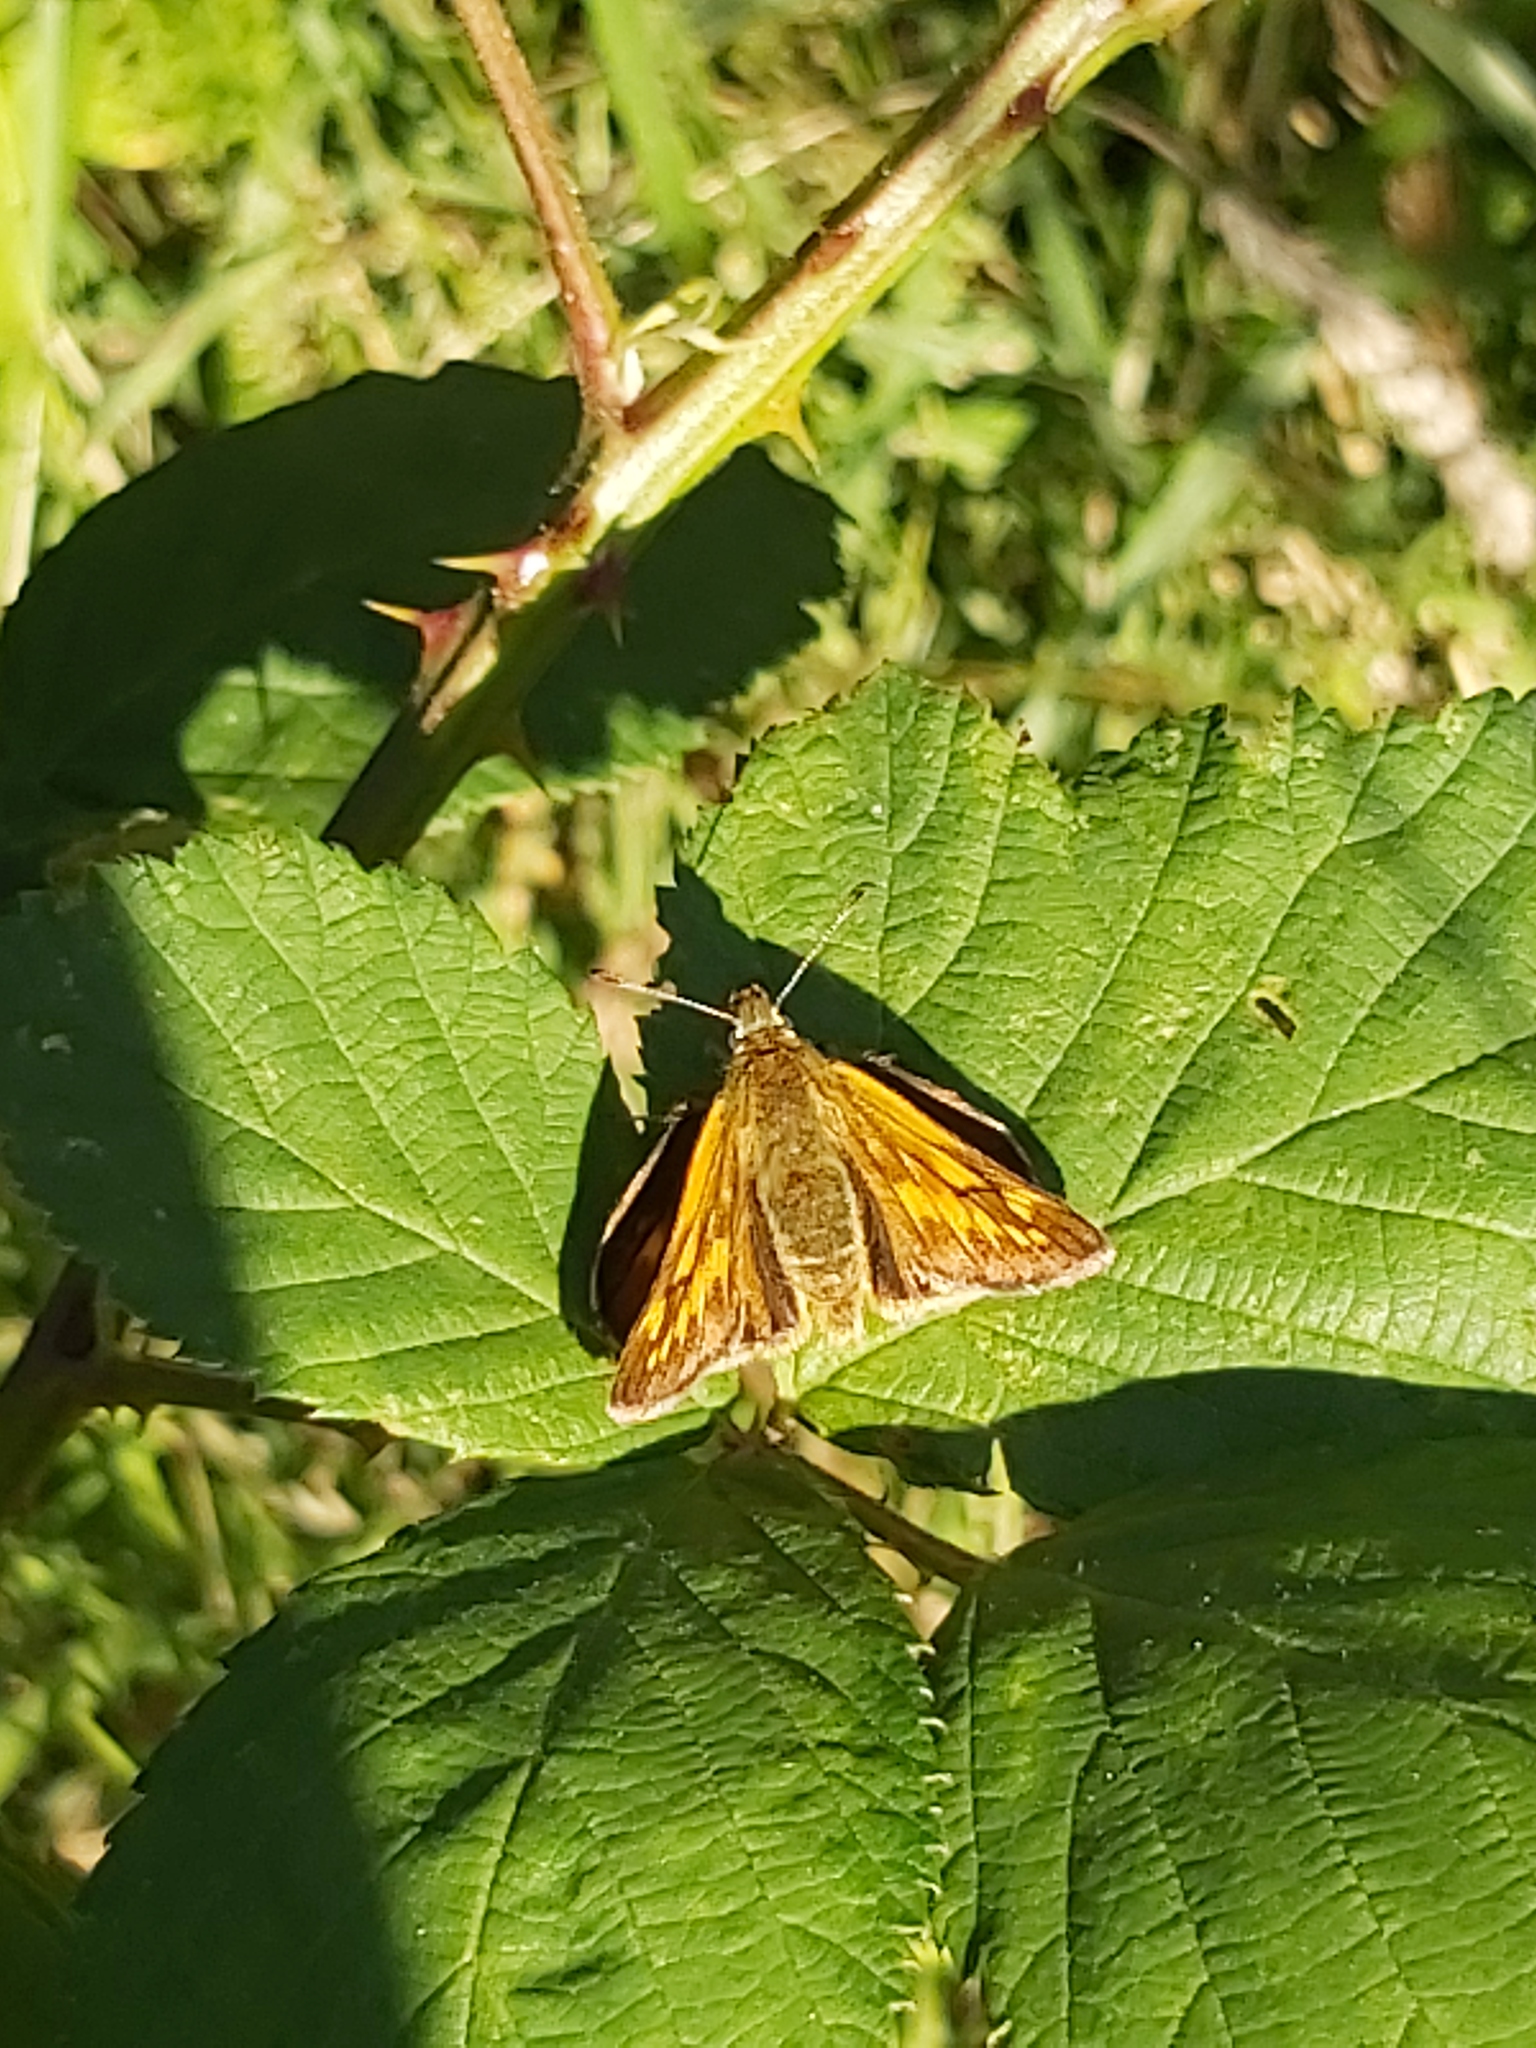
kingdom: Animalia
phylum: Arthropoda
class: Insecta
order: Lepidoptera
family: Hesperiidae
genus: Ochlodes
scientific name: Ochlodes venata
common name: Large skipper
